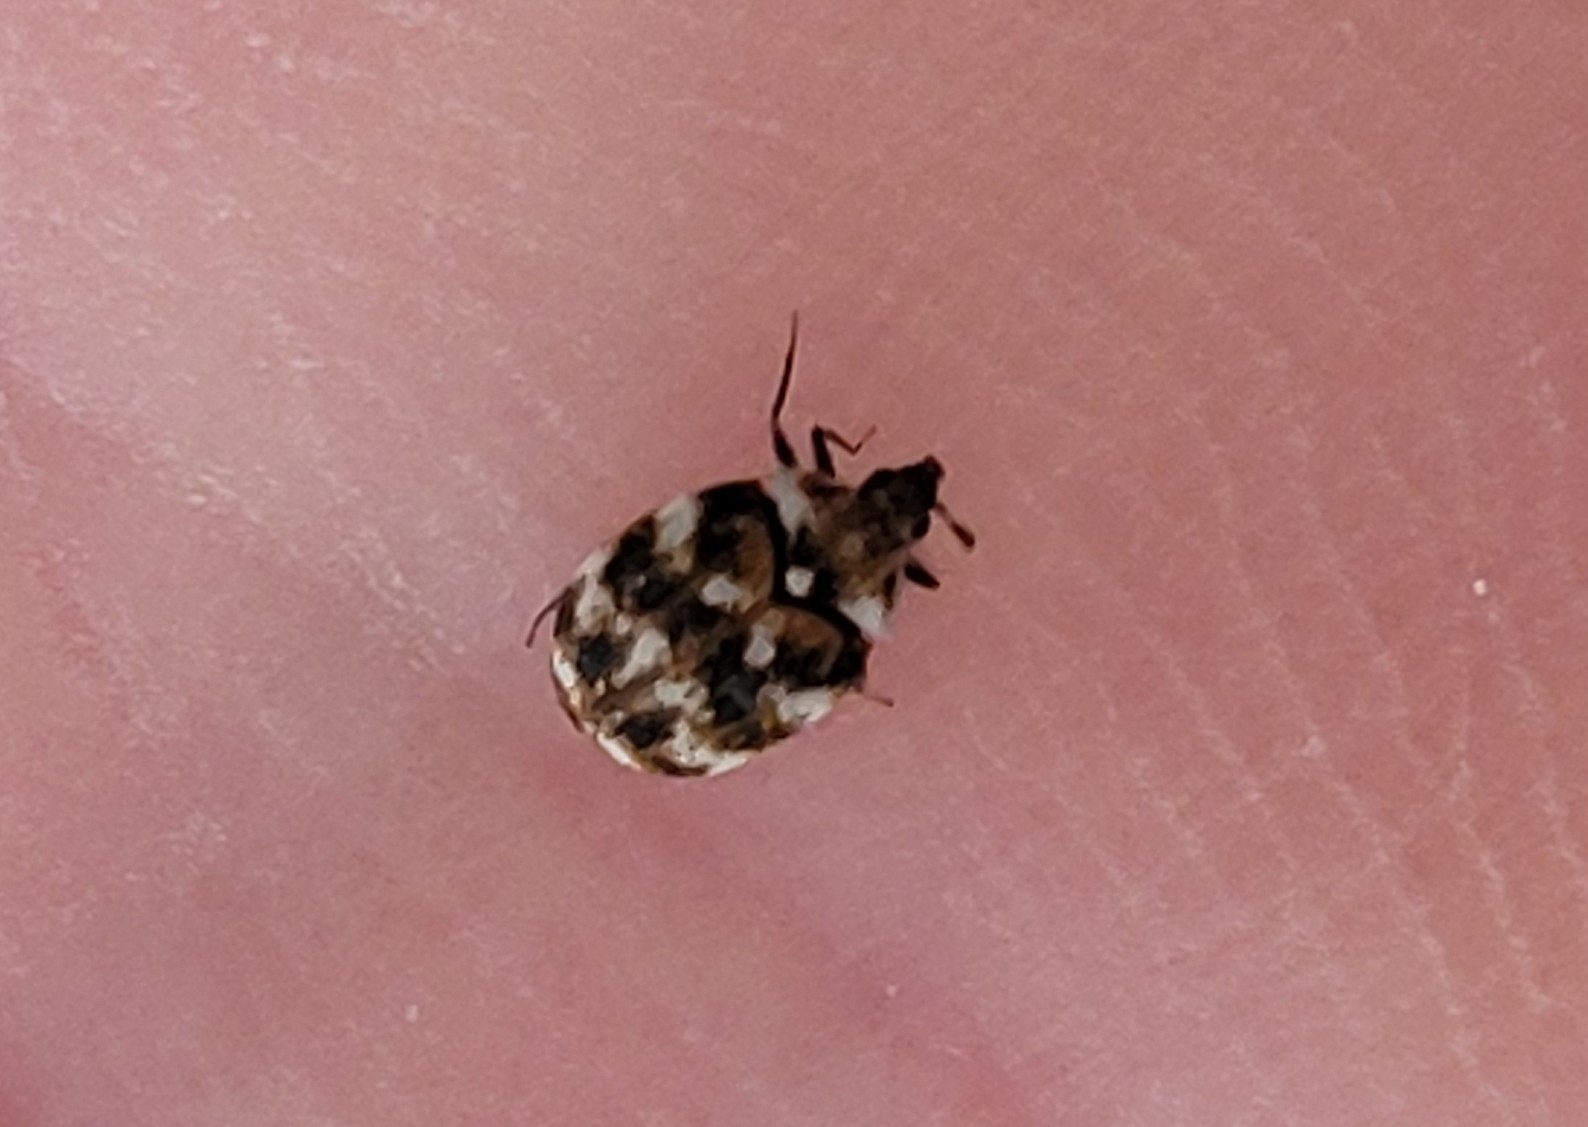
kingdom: Animalia
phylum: Arthropoda
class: Insecta
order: Coleoptera
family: Dermestidae
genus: Anthrenus
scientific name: Anthrenus verbasci
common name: Varied carpet beetle
